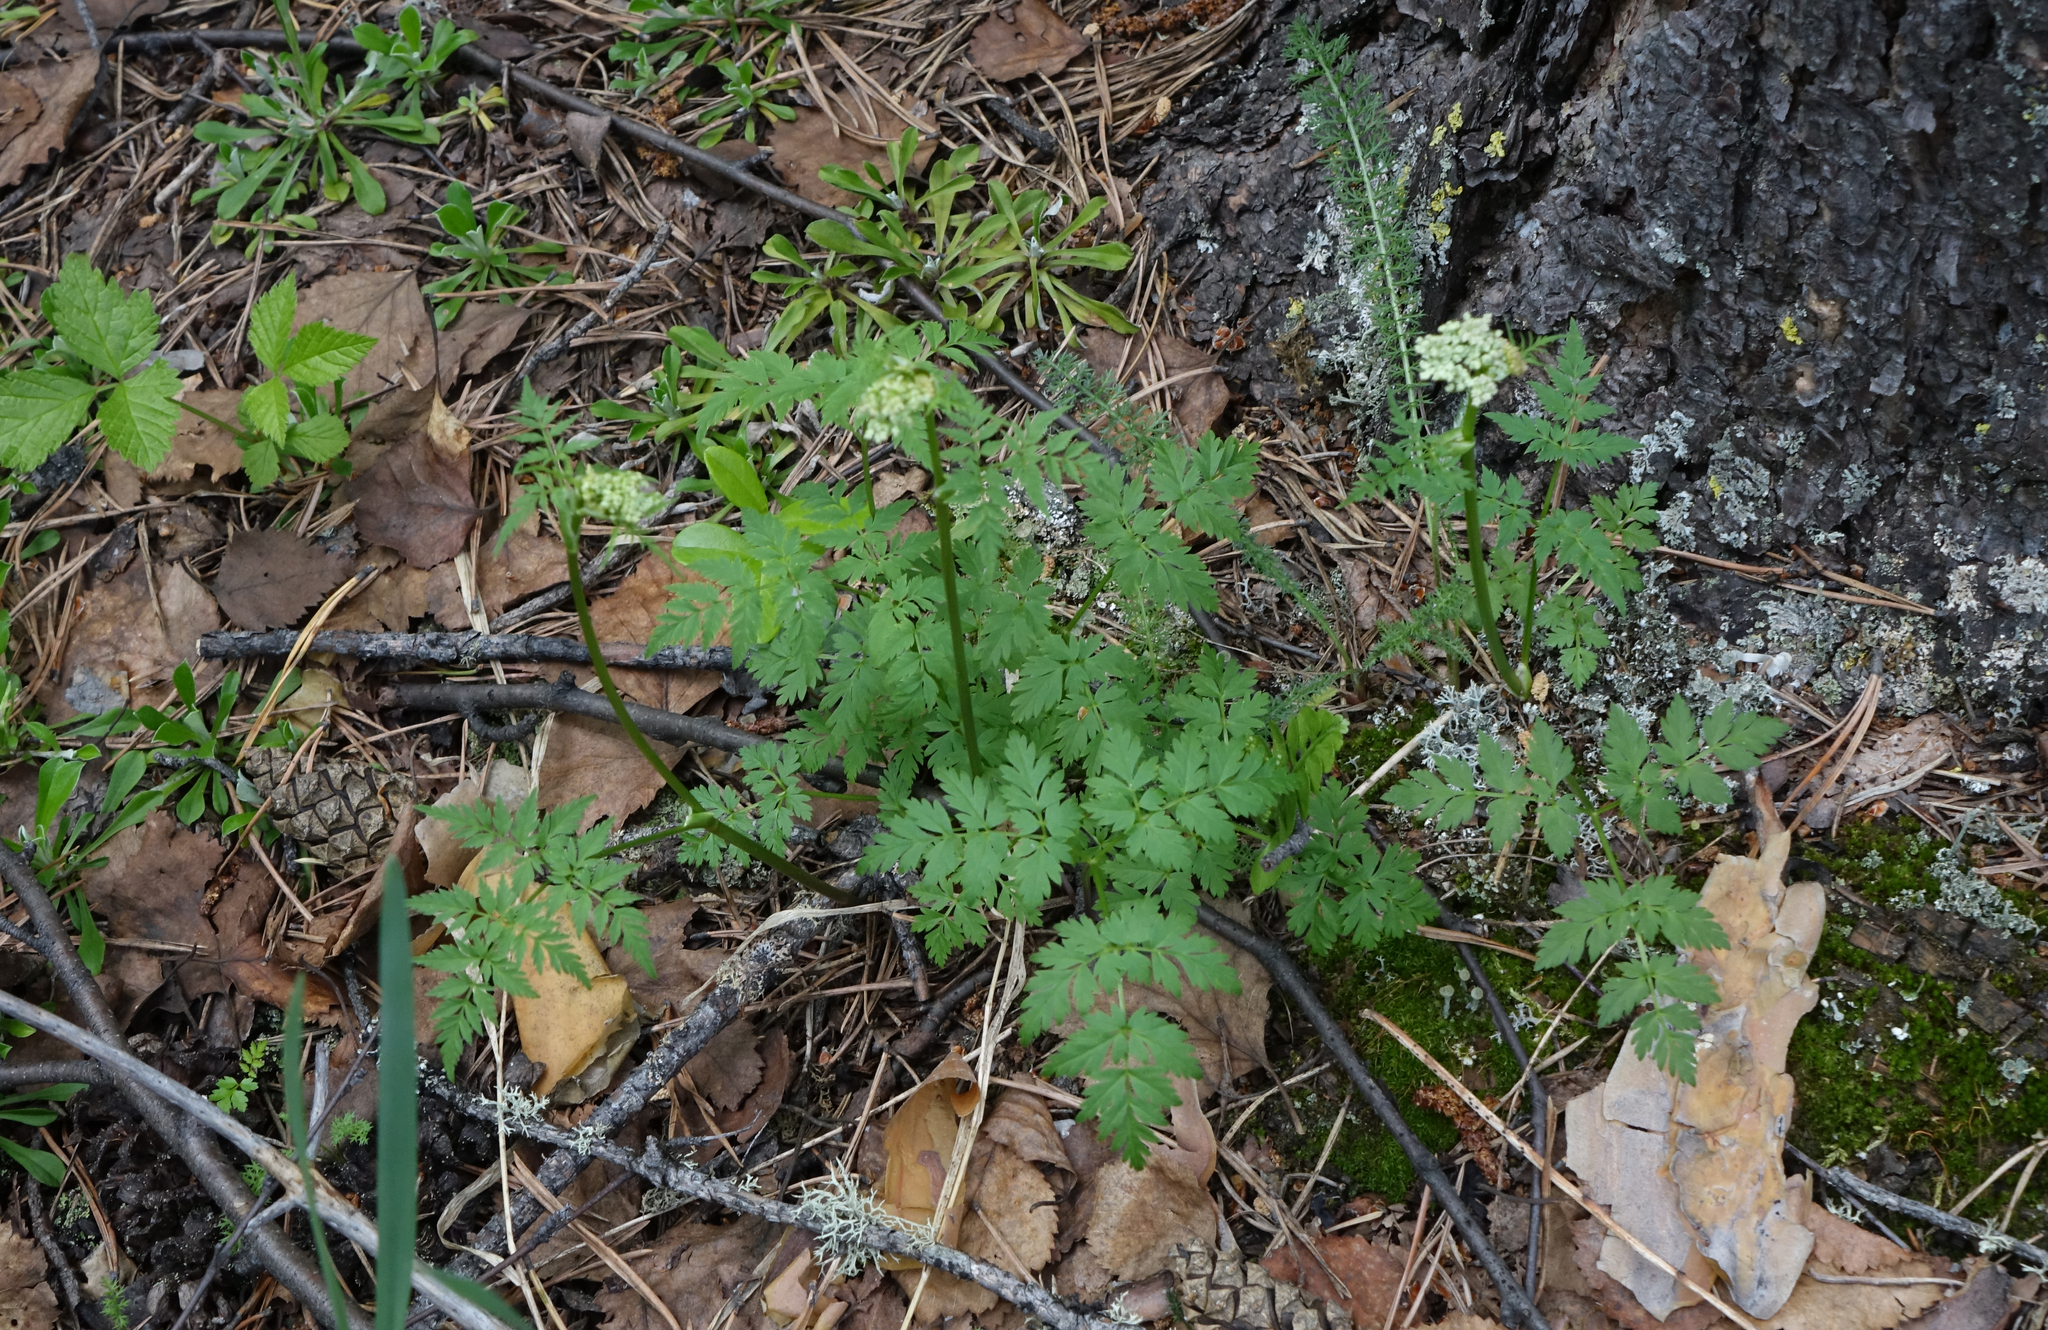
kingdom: Plantae
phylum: Tracheophyta
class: Magnoliopsida
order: Apiales
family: Apiaceae
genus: Aegopodium
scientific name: Aegopodium alpestre
